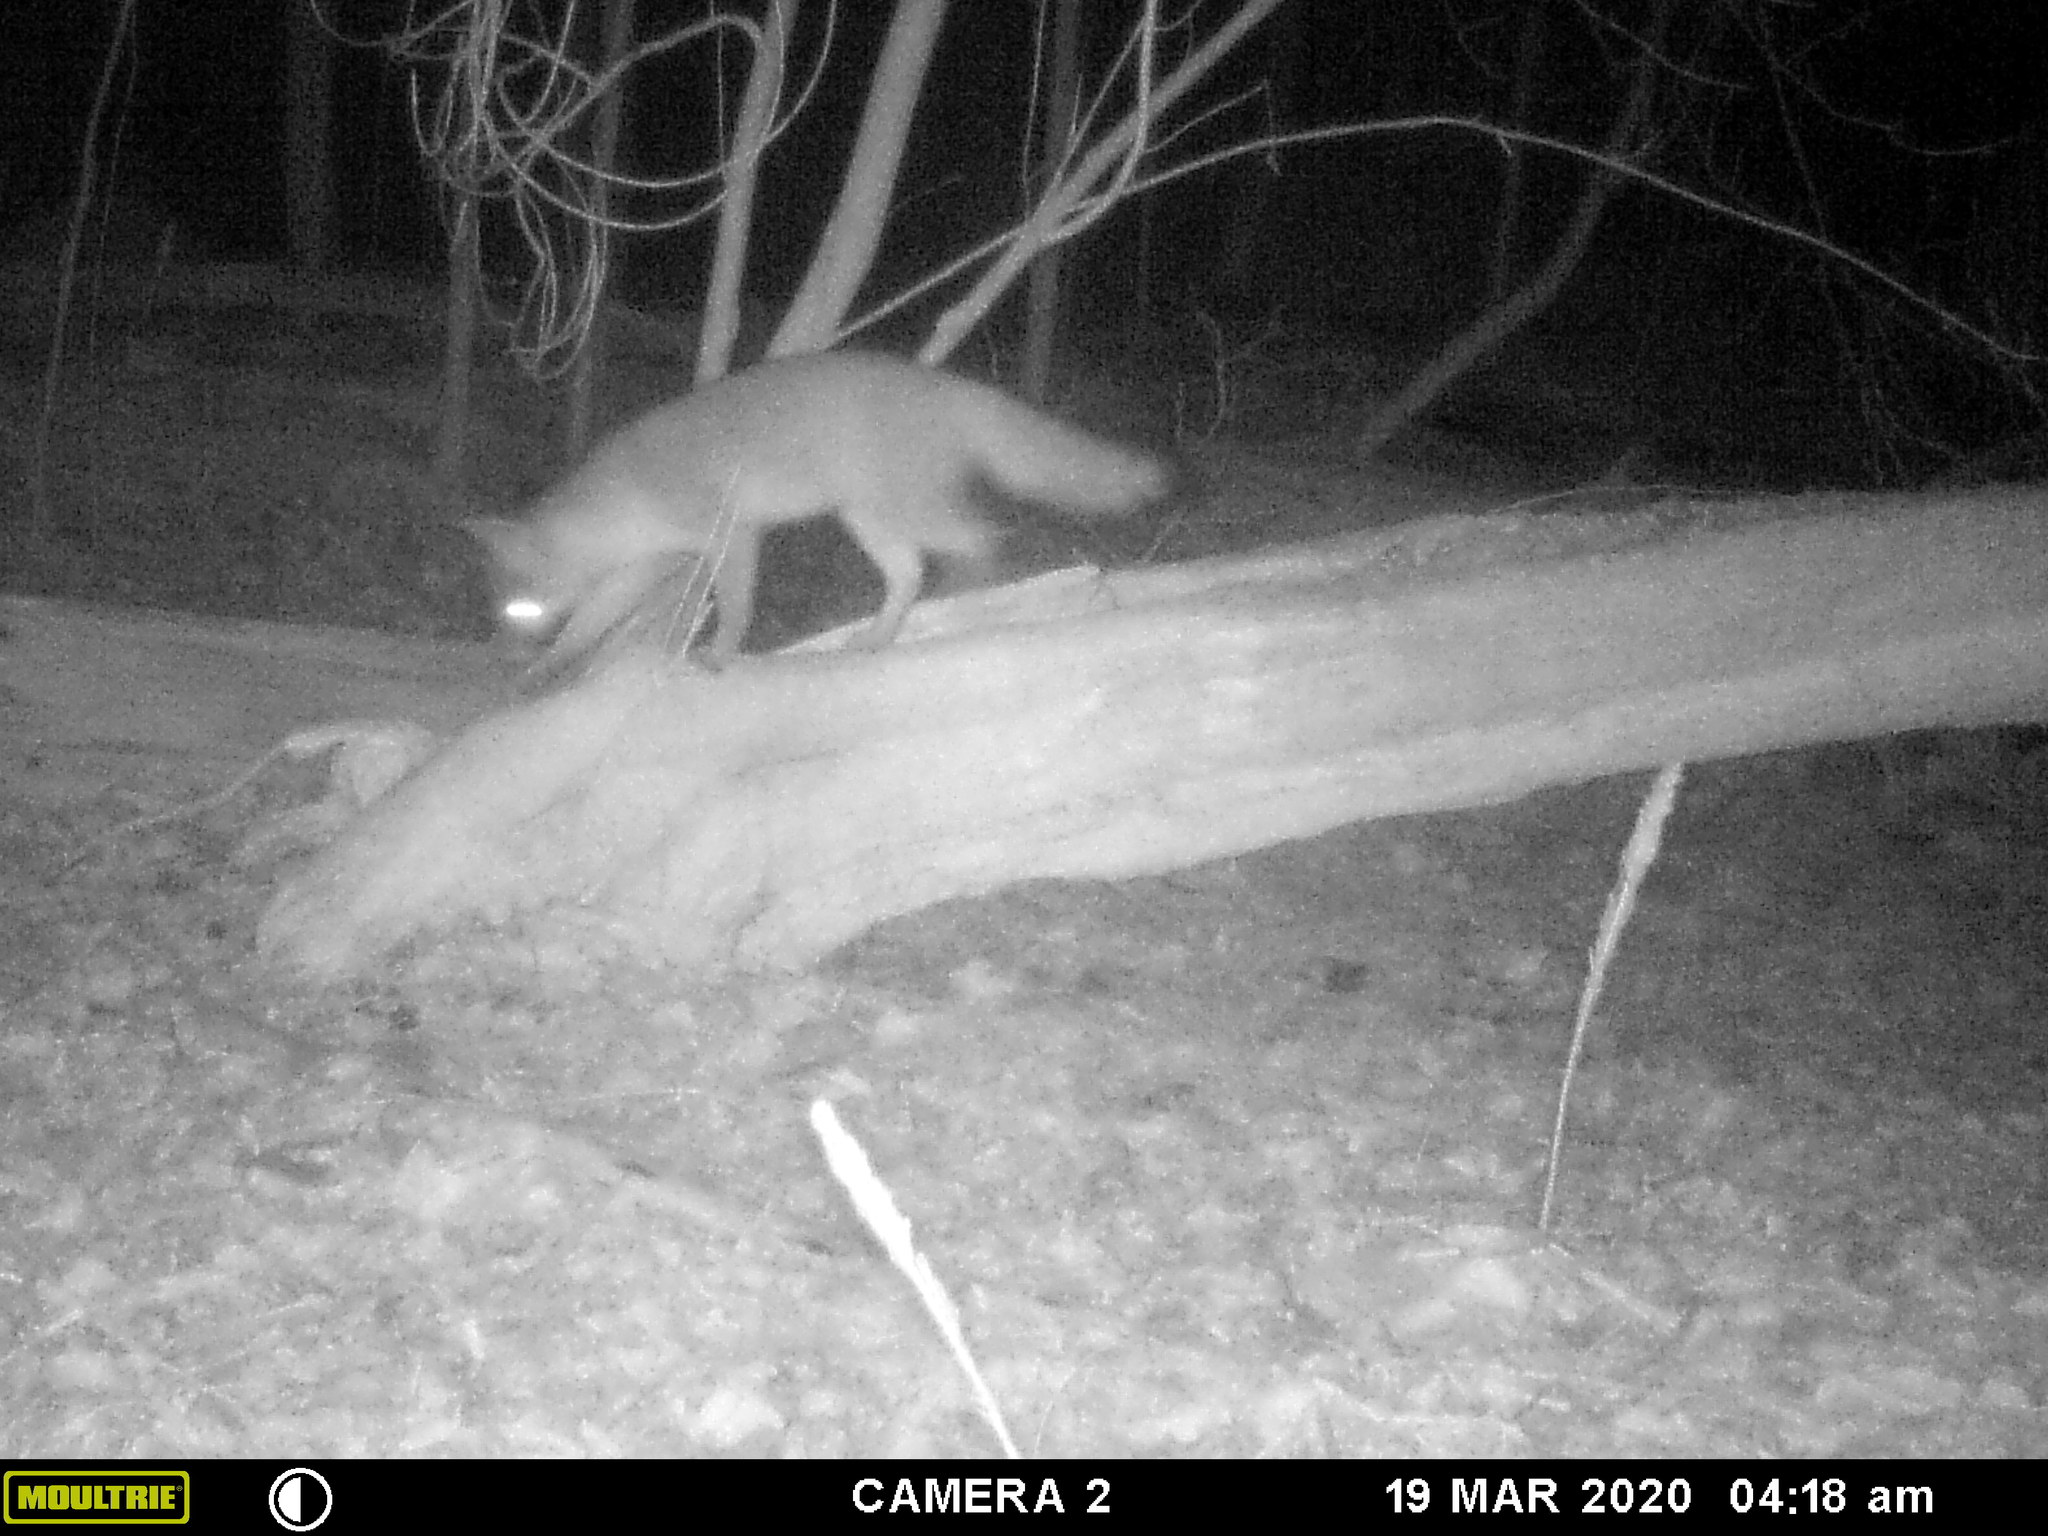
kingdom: Animalia
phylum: Chordata
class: Mammalia
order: Carnivora
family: Canidae
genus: Urocyon
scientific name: Urocyon cinereoargenteus
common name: Gray fox
